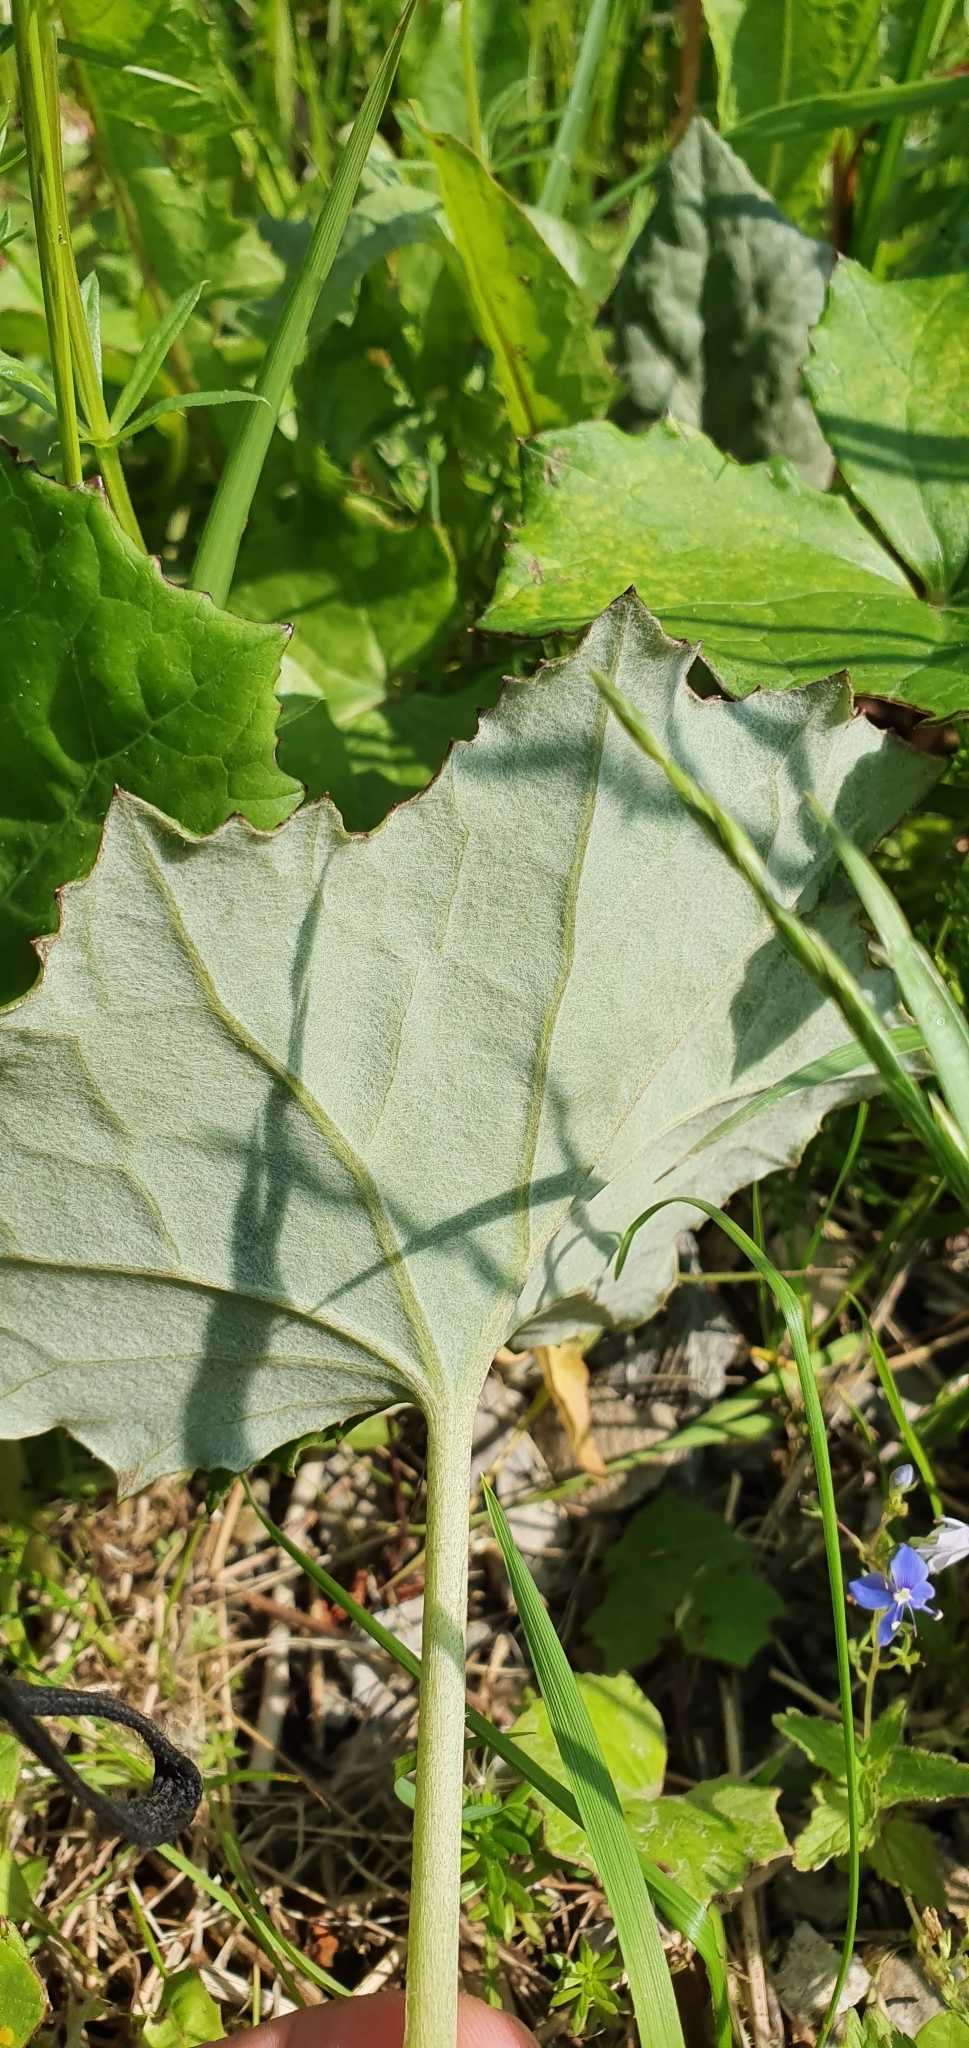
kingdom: Plantae
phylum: Tracheophyta
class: Magnoliopsida
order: Asterales
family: Asteraceae
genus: Tussilago
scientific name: Tussilago farfara
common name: Coltsfoot
